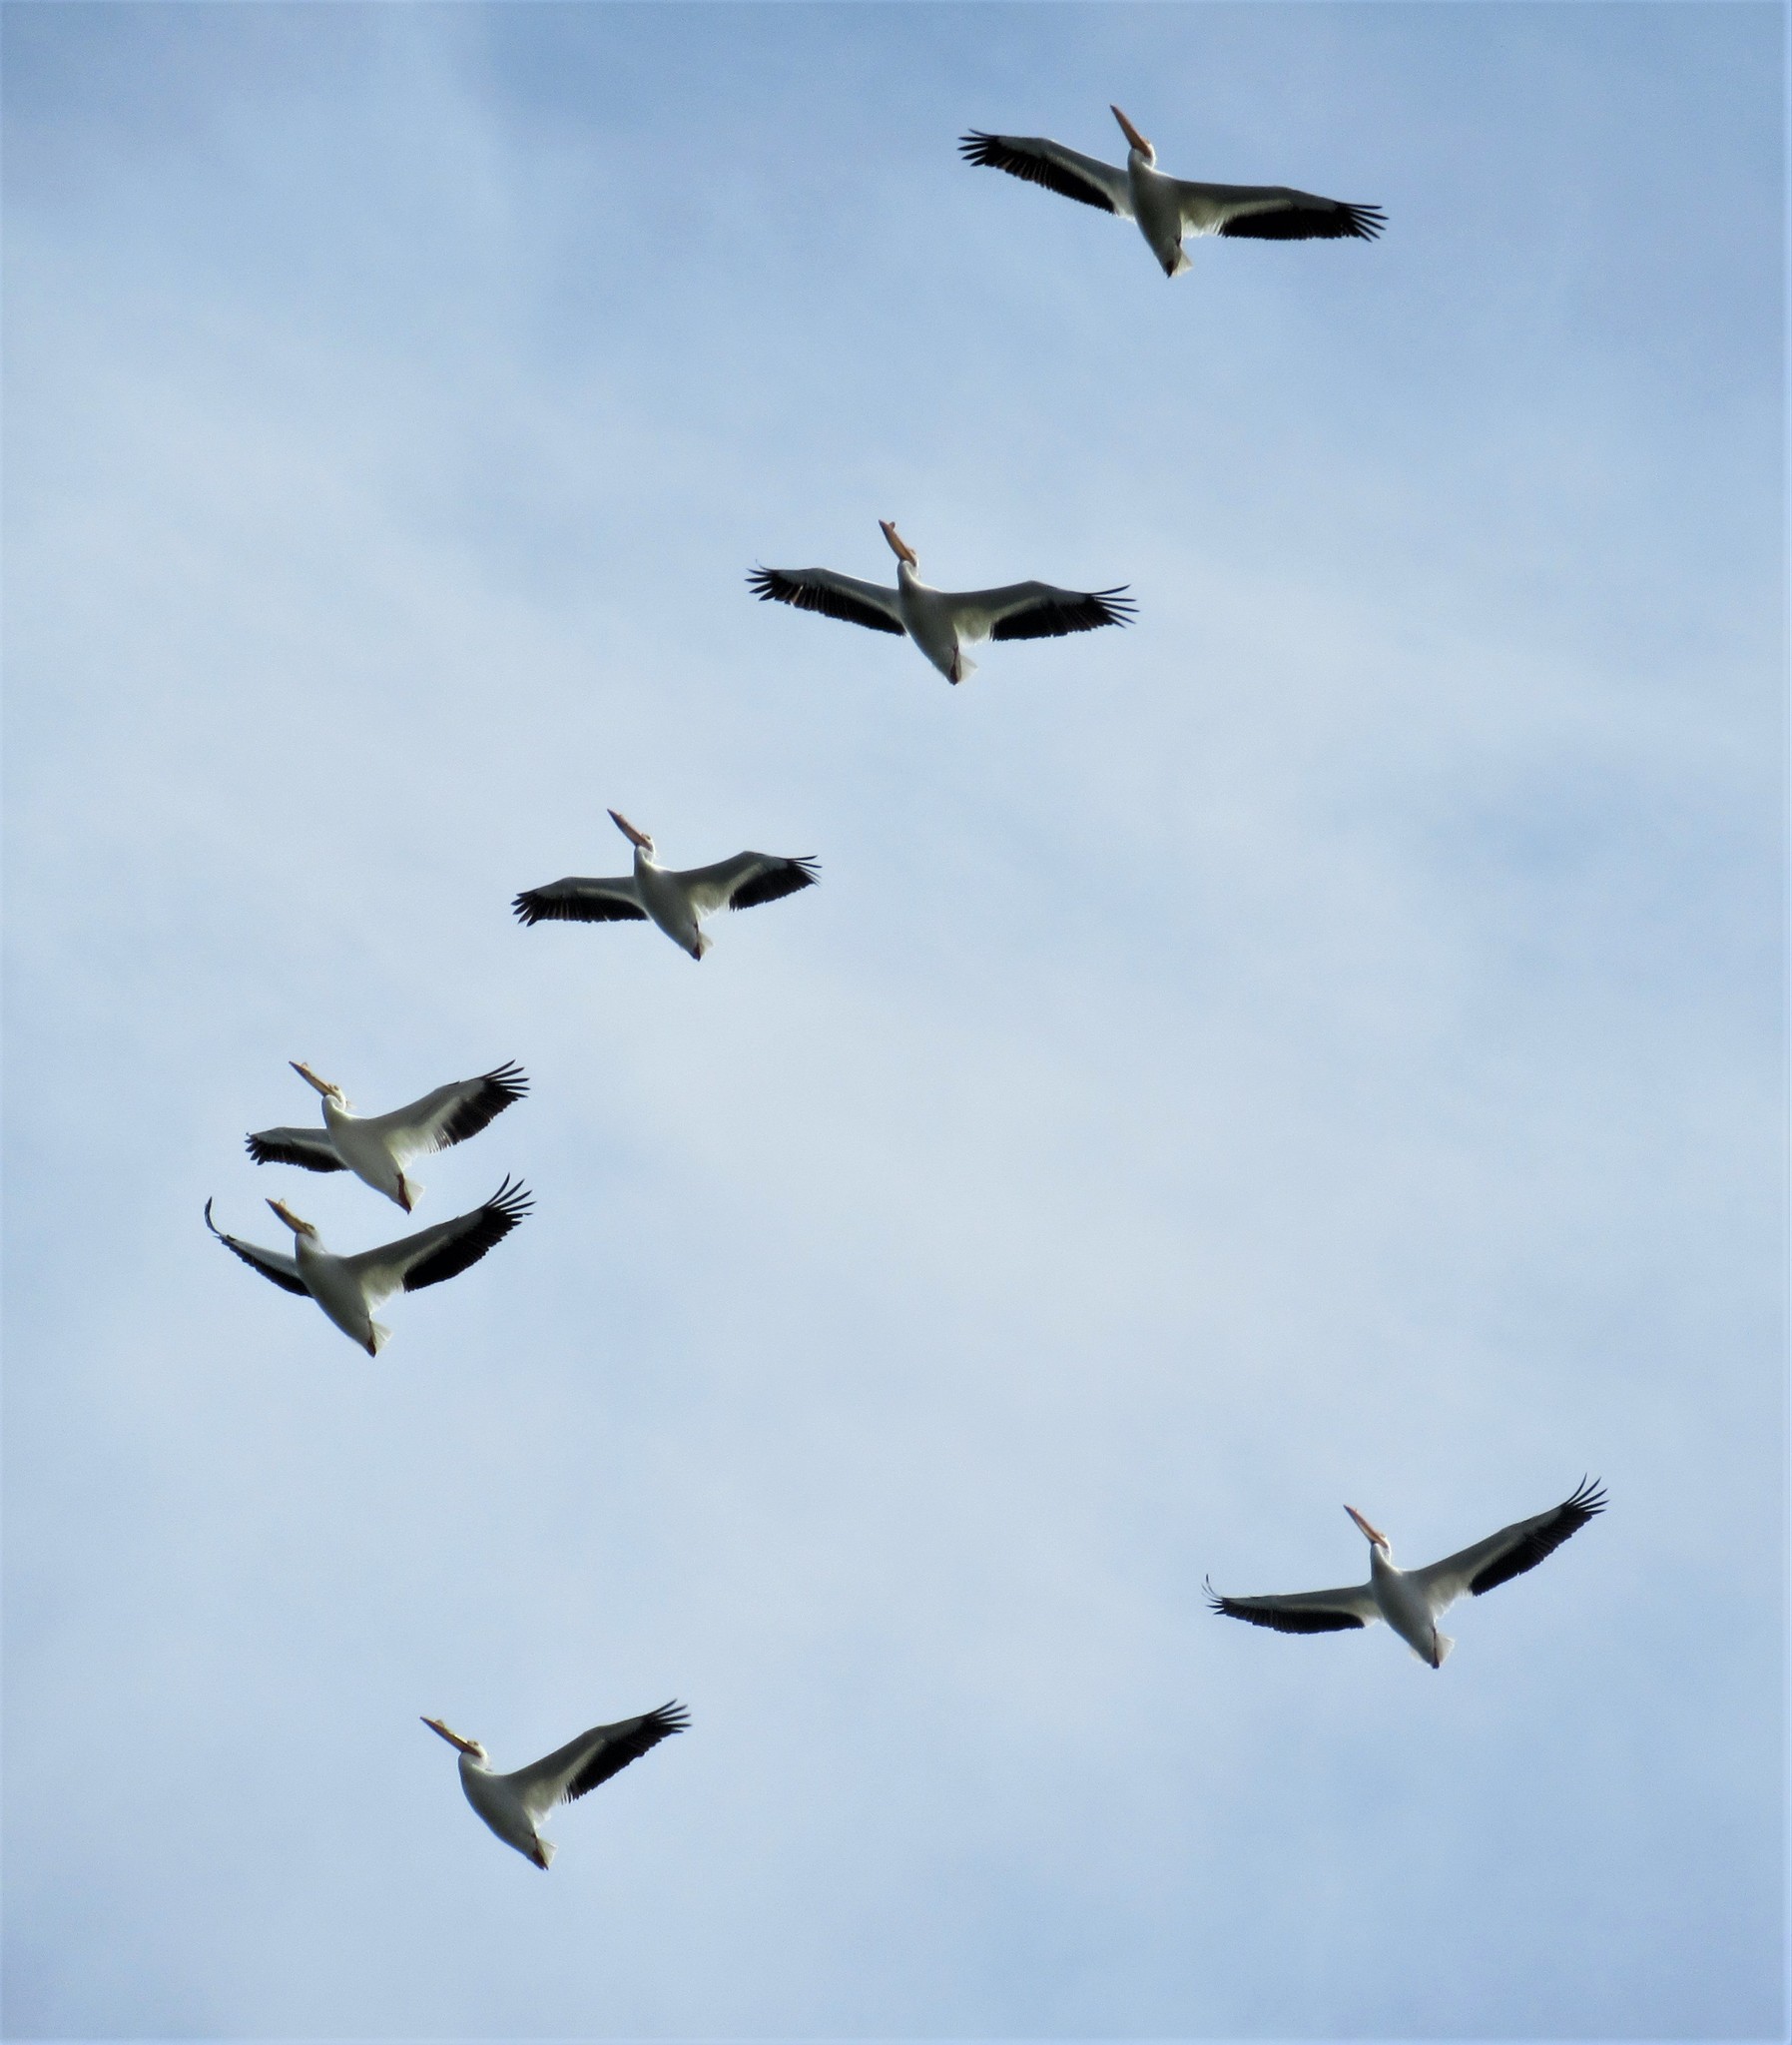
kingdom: Animalia
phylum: Chordata
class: Aves
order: Pelecaniformes
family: Pelecanidae
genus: Pelecanus
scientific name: Pelecanus erythrorhynchos
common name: American white pelican
